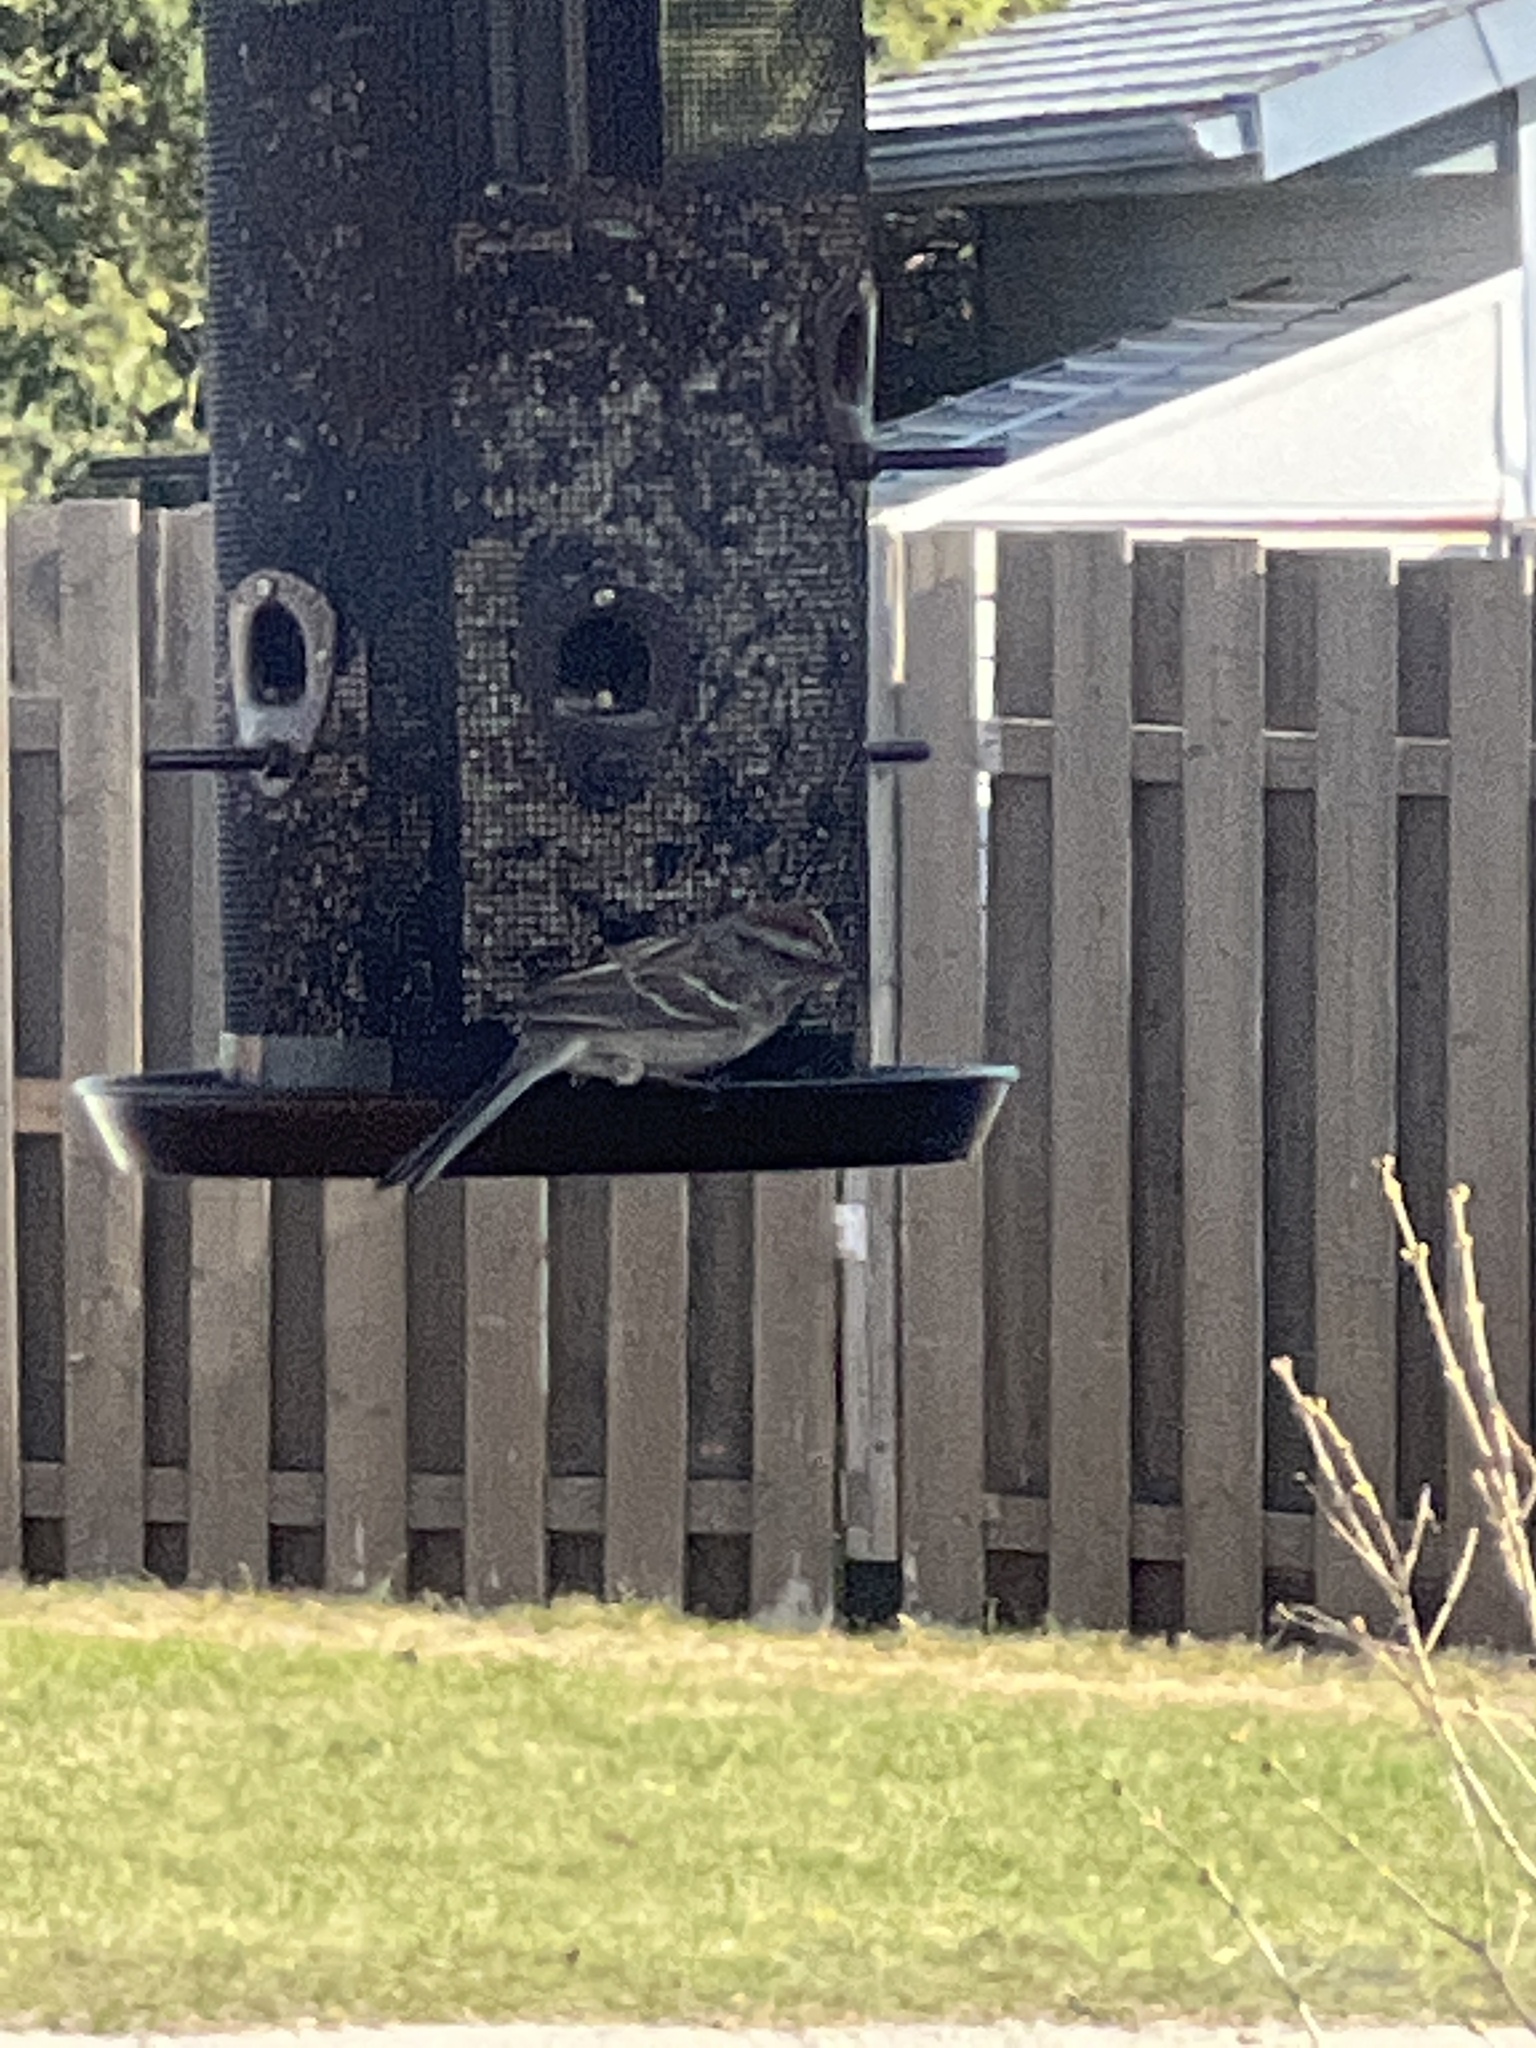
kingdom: Animalia
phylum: Chordata
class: Aves
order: Passeriformes
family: Passerellidae
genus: Spizella
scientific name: Spizella passerina
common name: Chipping sparrow
